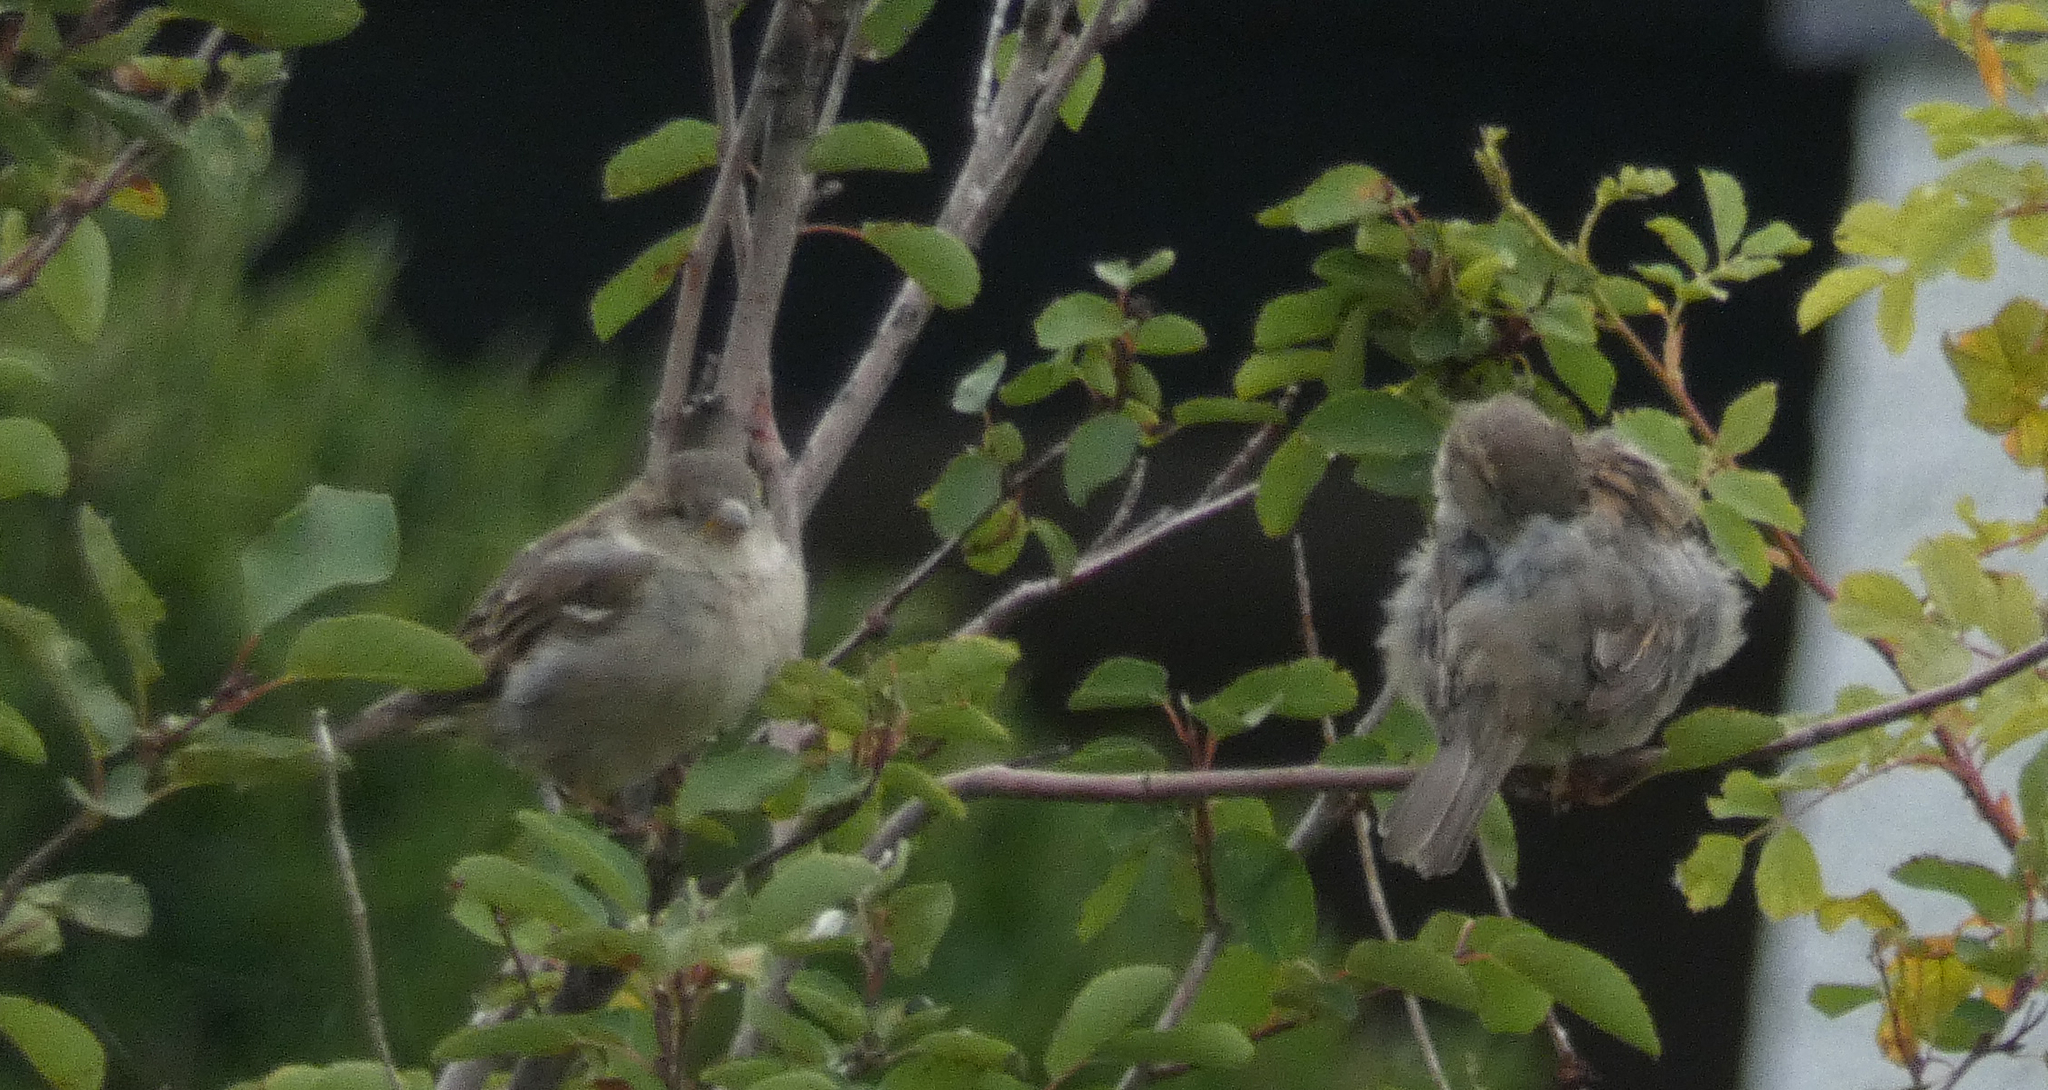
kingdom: Animalia
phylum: Chordata
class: Aves
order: Passeriformes
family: Passeridae
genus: Passer
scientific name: Passer domesticus
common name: House sparrow
